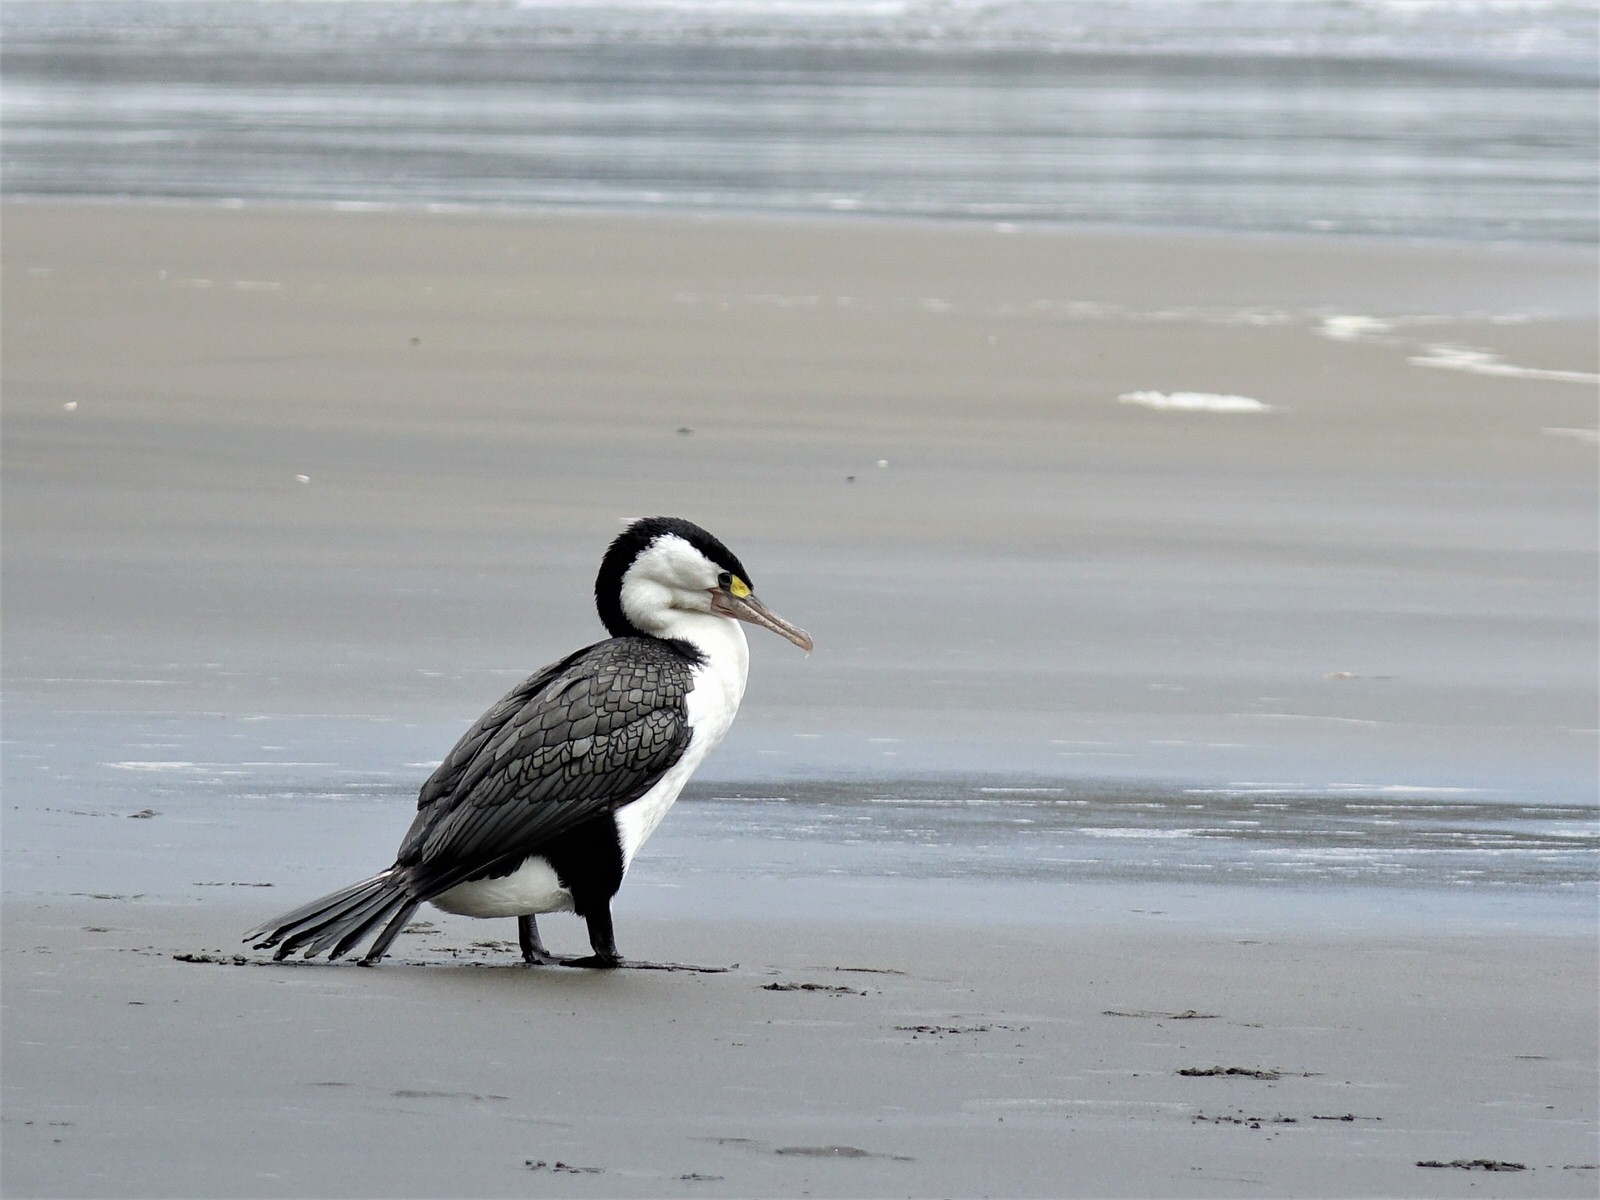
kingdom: Animalia
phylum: Chordata
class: Aves
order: Suliformes
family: Phalacrocoracidae
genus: Phalacrocorax
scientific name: Phalacrocorax varius
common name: Pied cormorant
